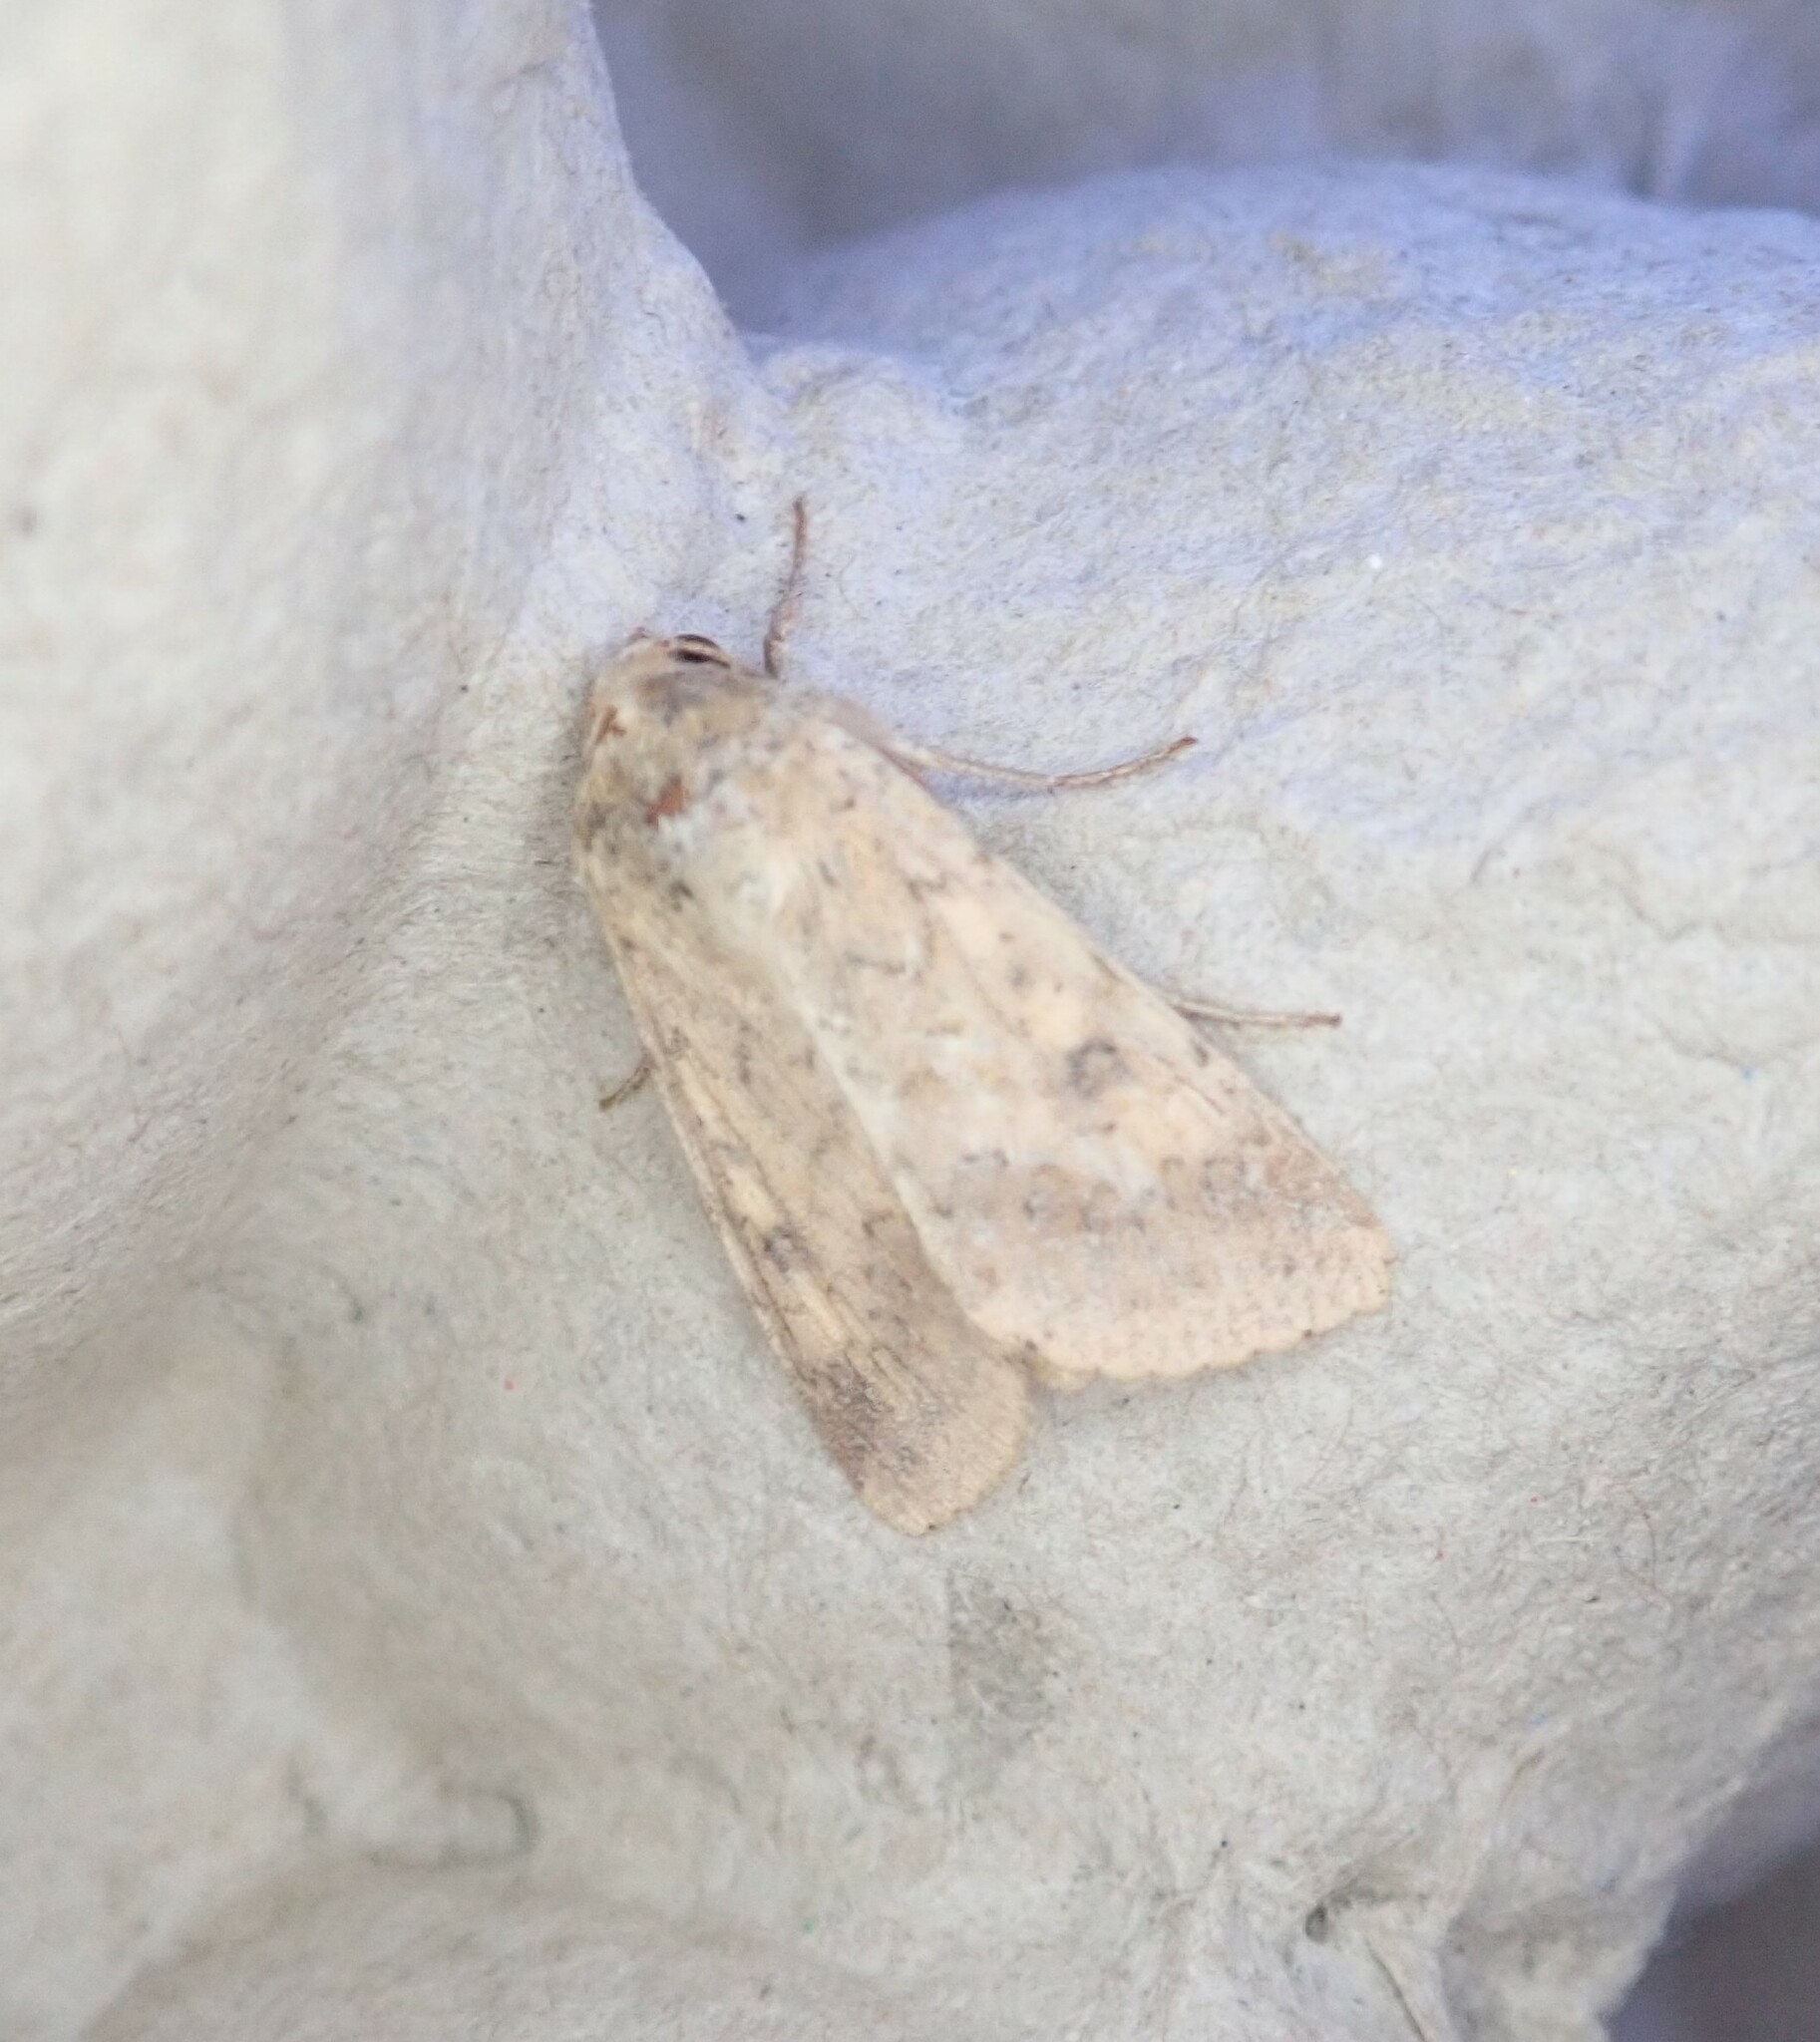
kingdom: Animalia
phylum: Arthropoda
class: Insecta
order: Lepidoptera
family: Noctuidae
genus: Helicoverpa
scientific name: Helicoverpa armigera
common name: Cotton bollworm
